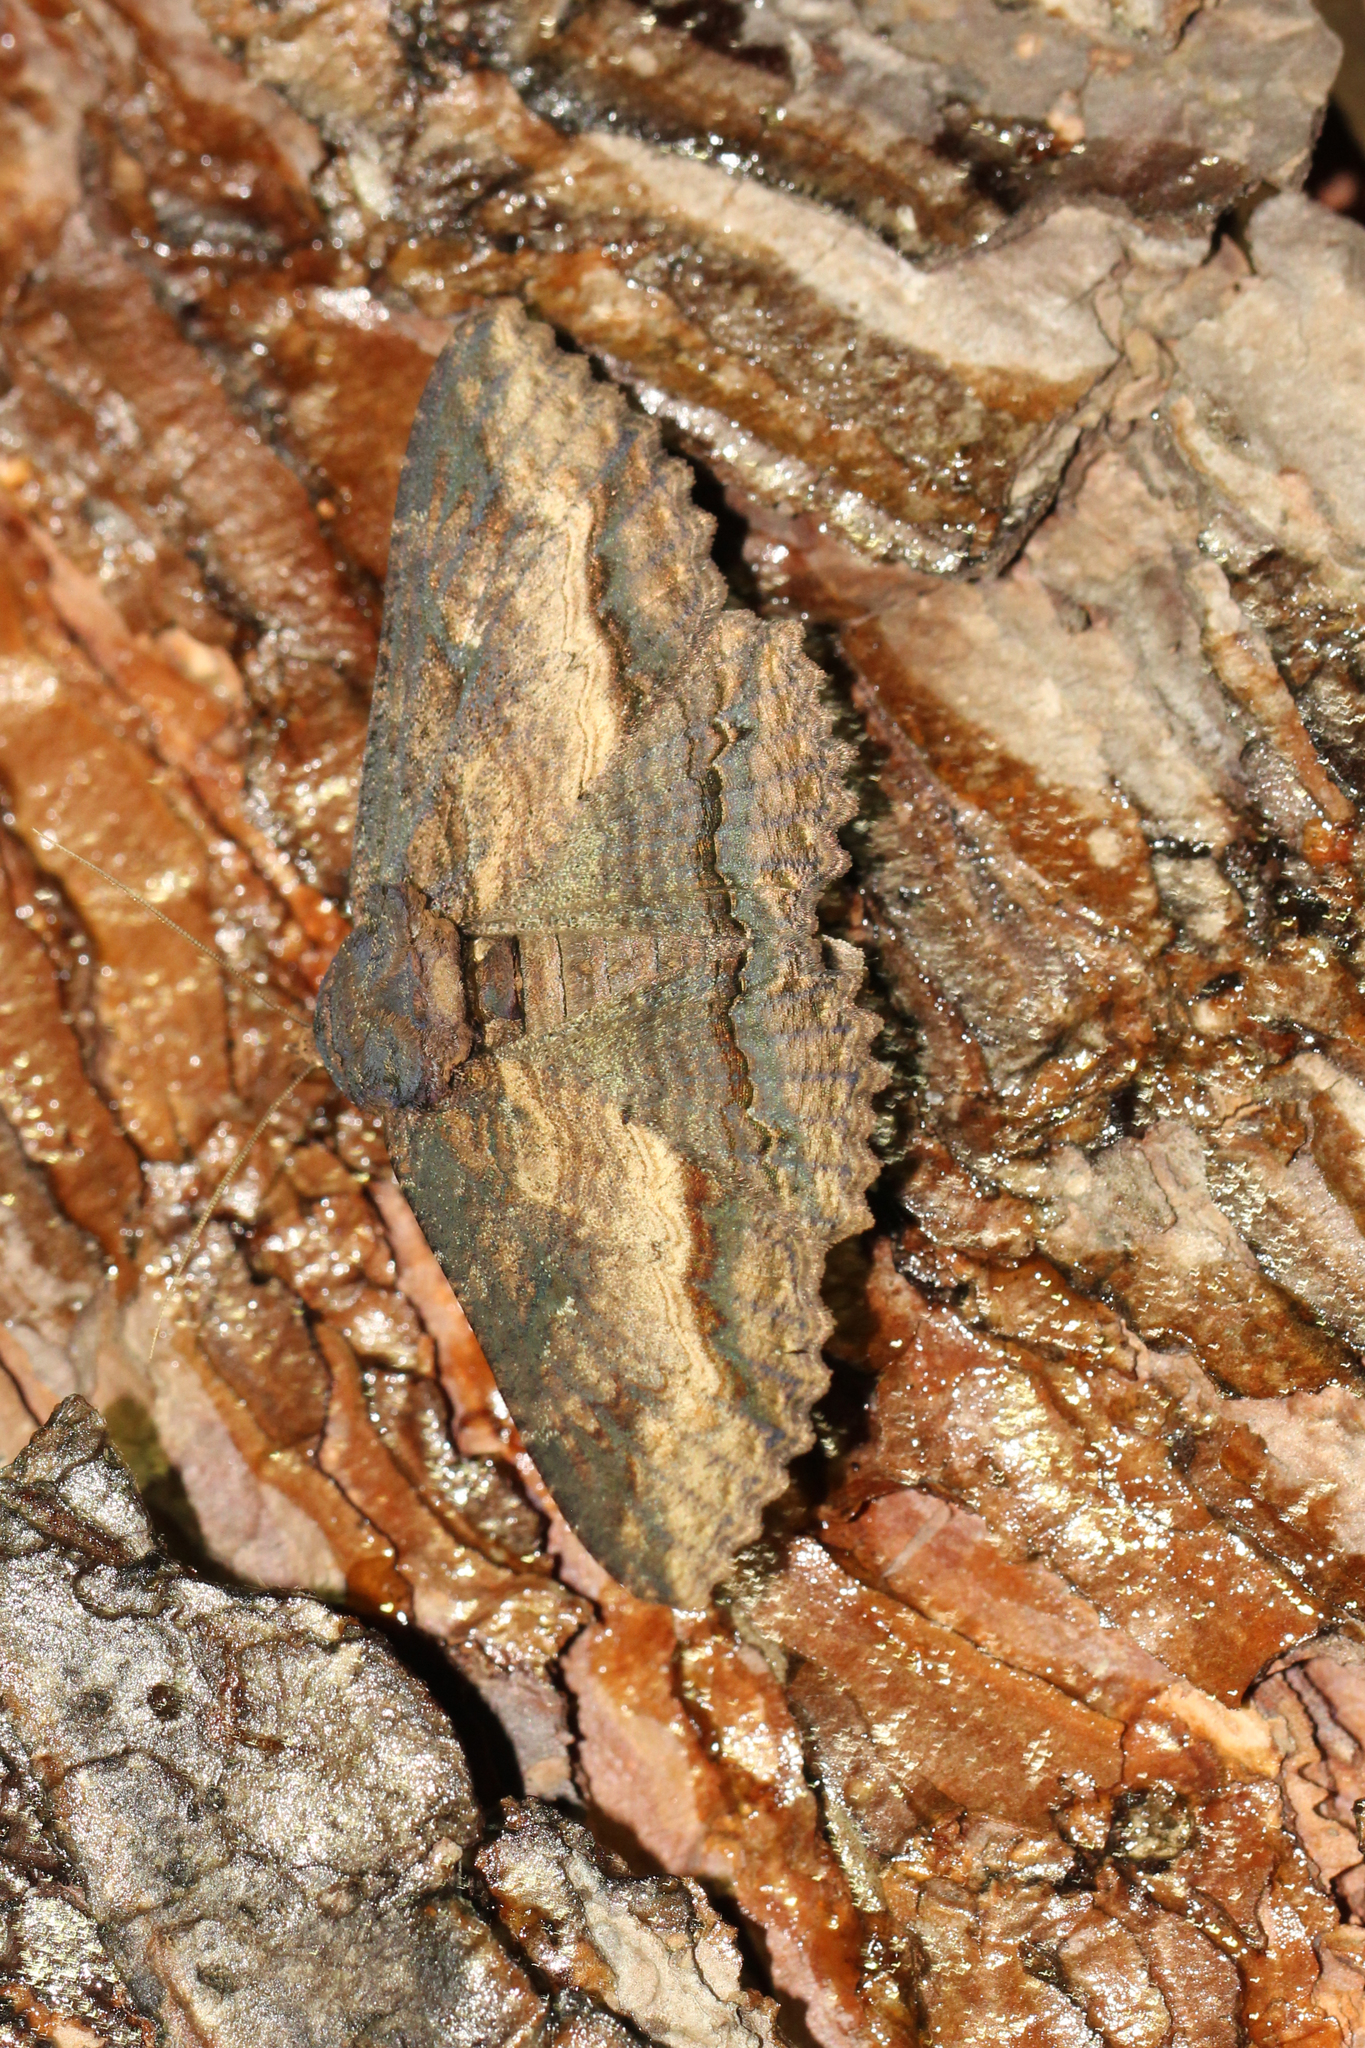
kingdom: Animalia
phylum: Arthropoda
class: Insecta
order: Lepidoptera
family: Erebidae
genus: Zale
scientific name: Zale lunata
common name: Lunate zale moth
